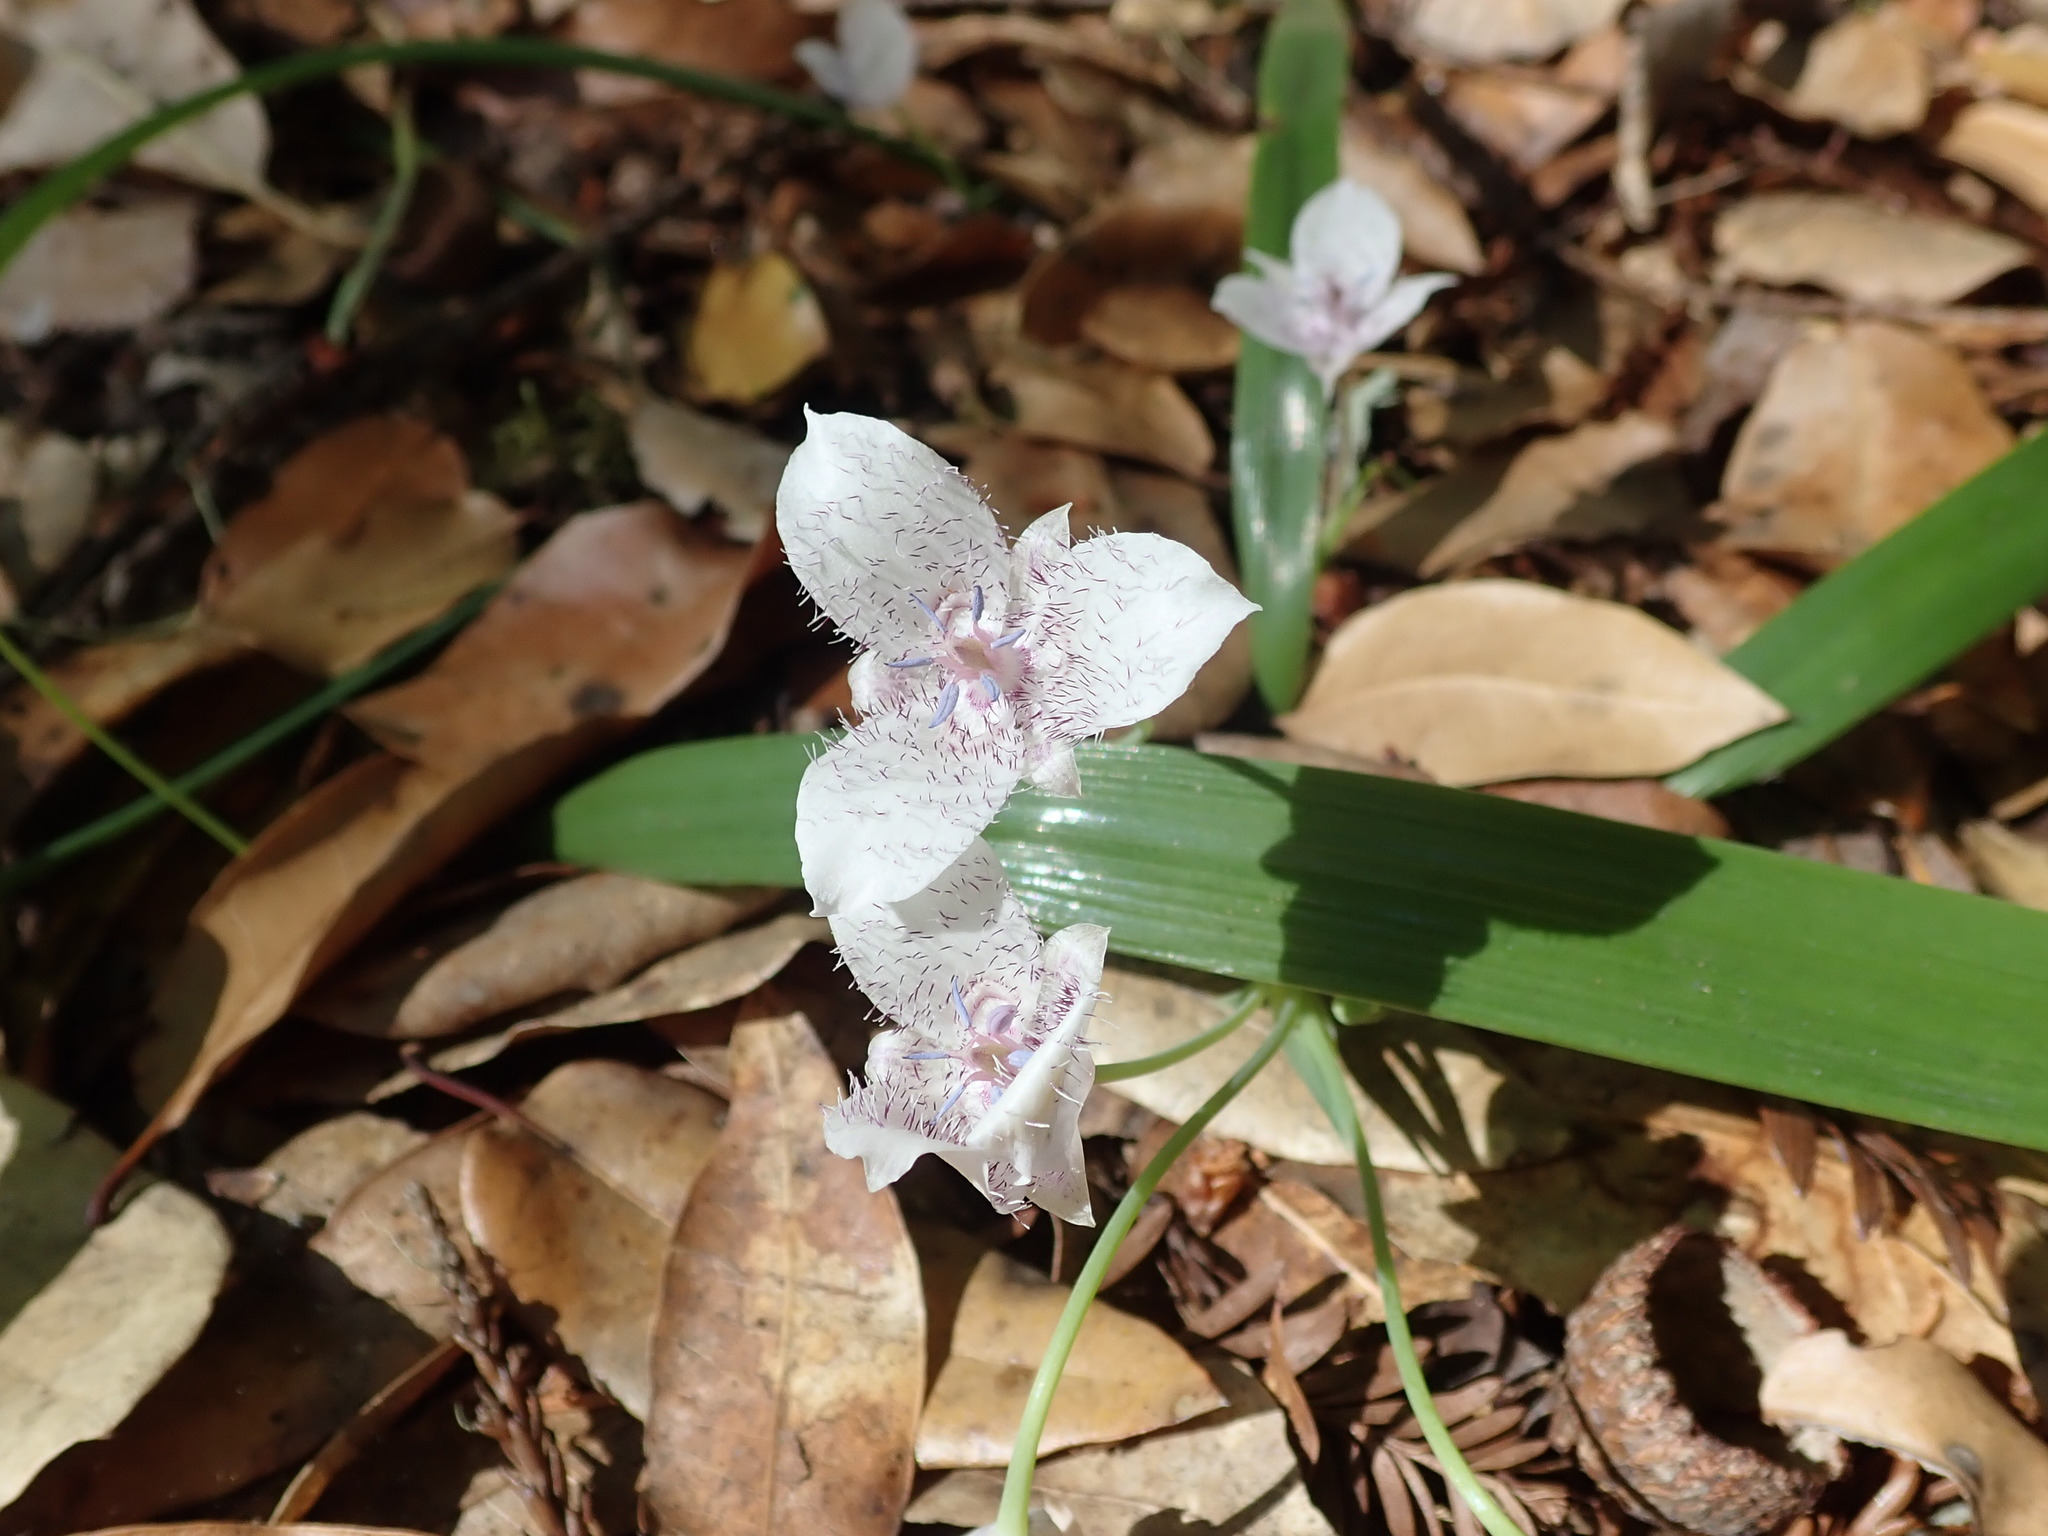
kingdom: Plantae
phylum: Tracheophyta
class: Liliopsida
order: Liliales
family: Liliaceae
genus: Calochortus
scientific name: Calochortus tolmiei
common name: Pussy-ears
